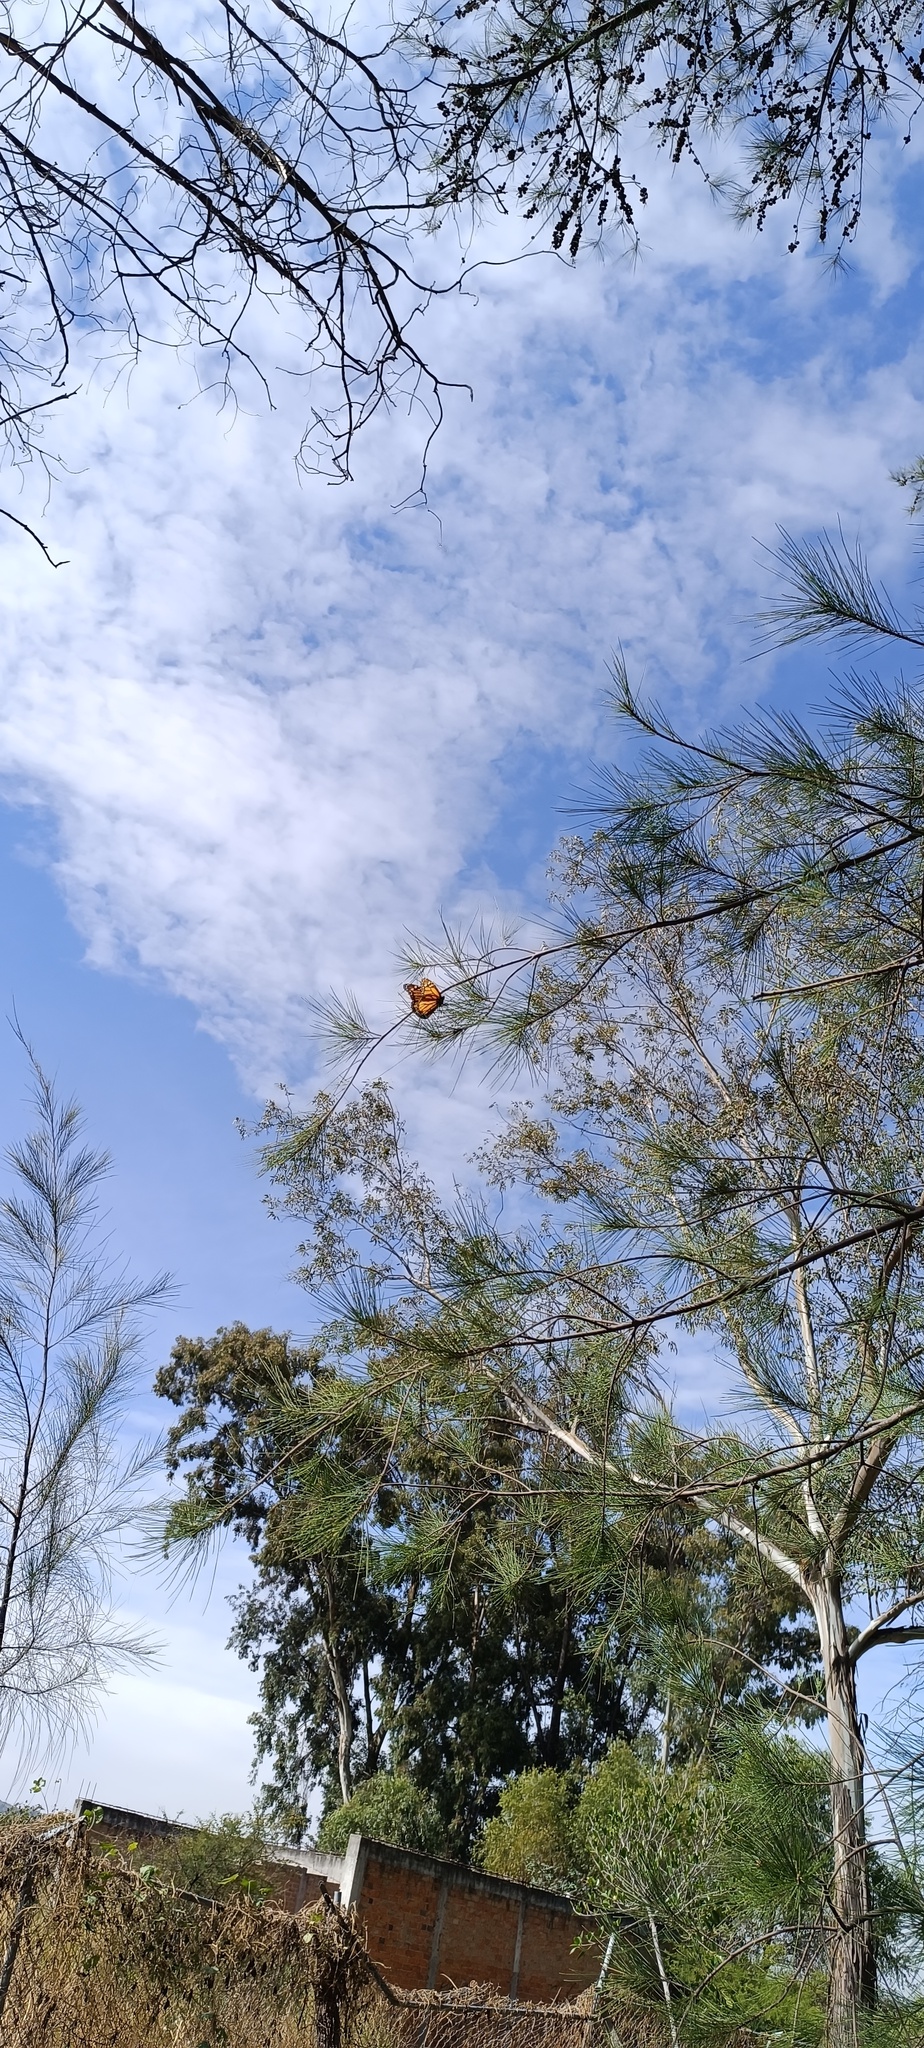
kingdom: Animalia
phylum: Arthropoda
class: Insecta
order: Lepidoptera
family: Nymphalidae
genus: Danaus
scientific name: Danaus plexippus
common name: Monarch
